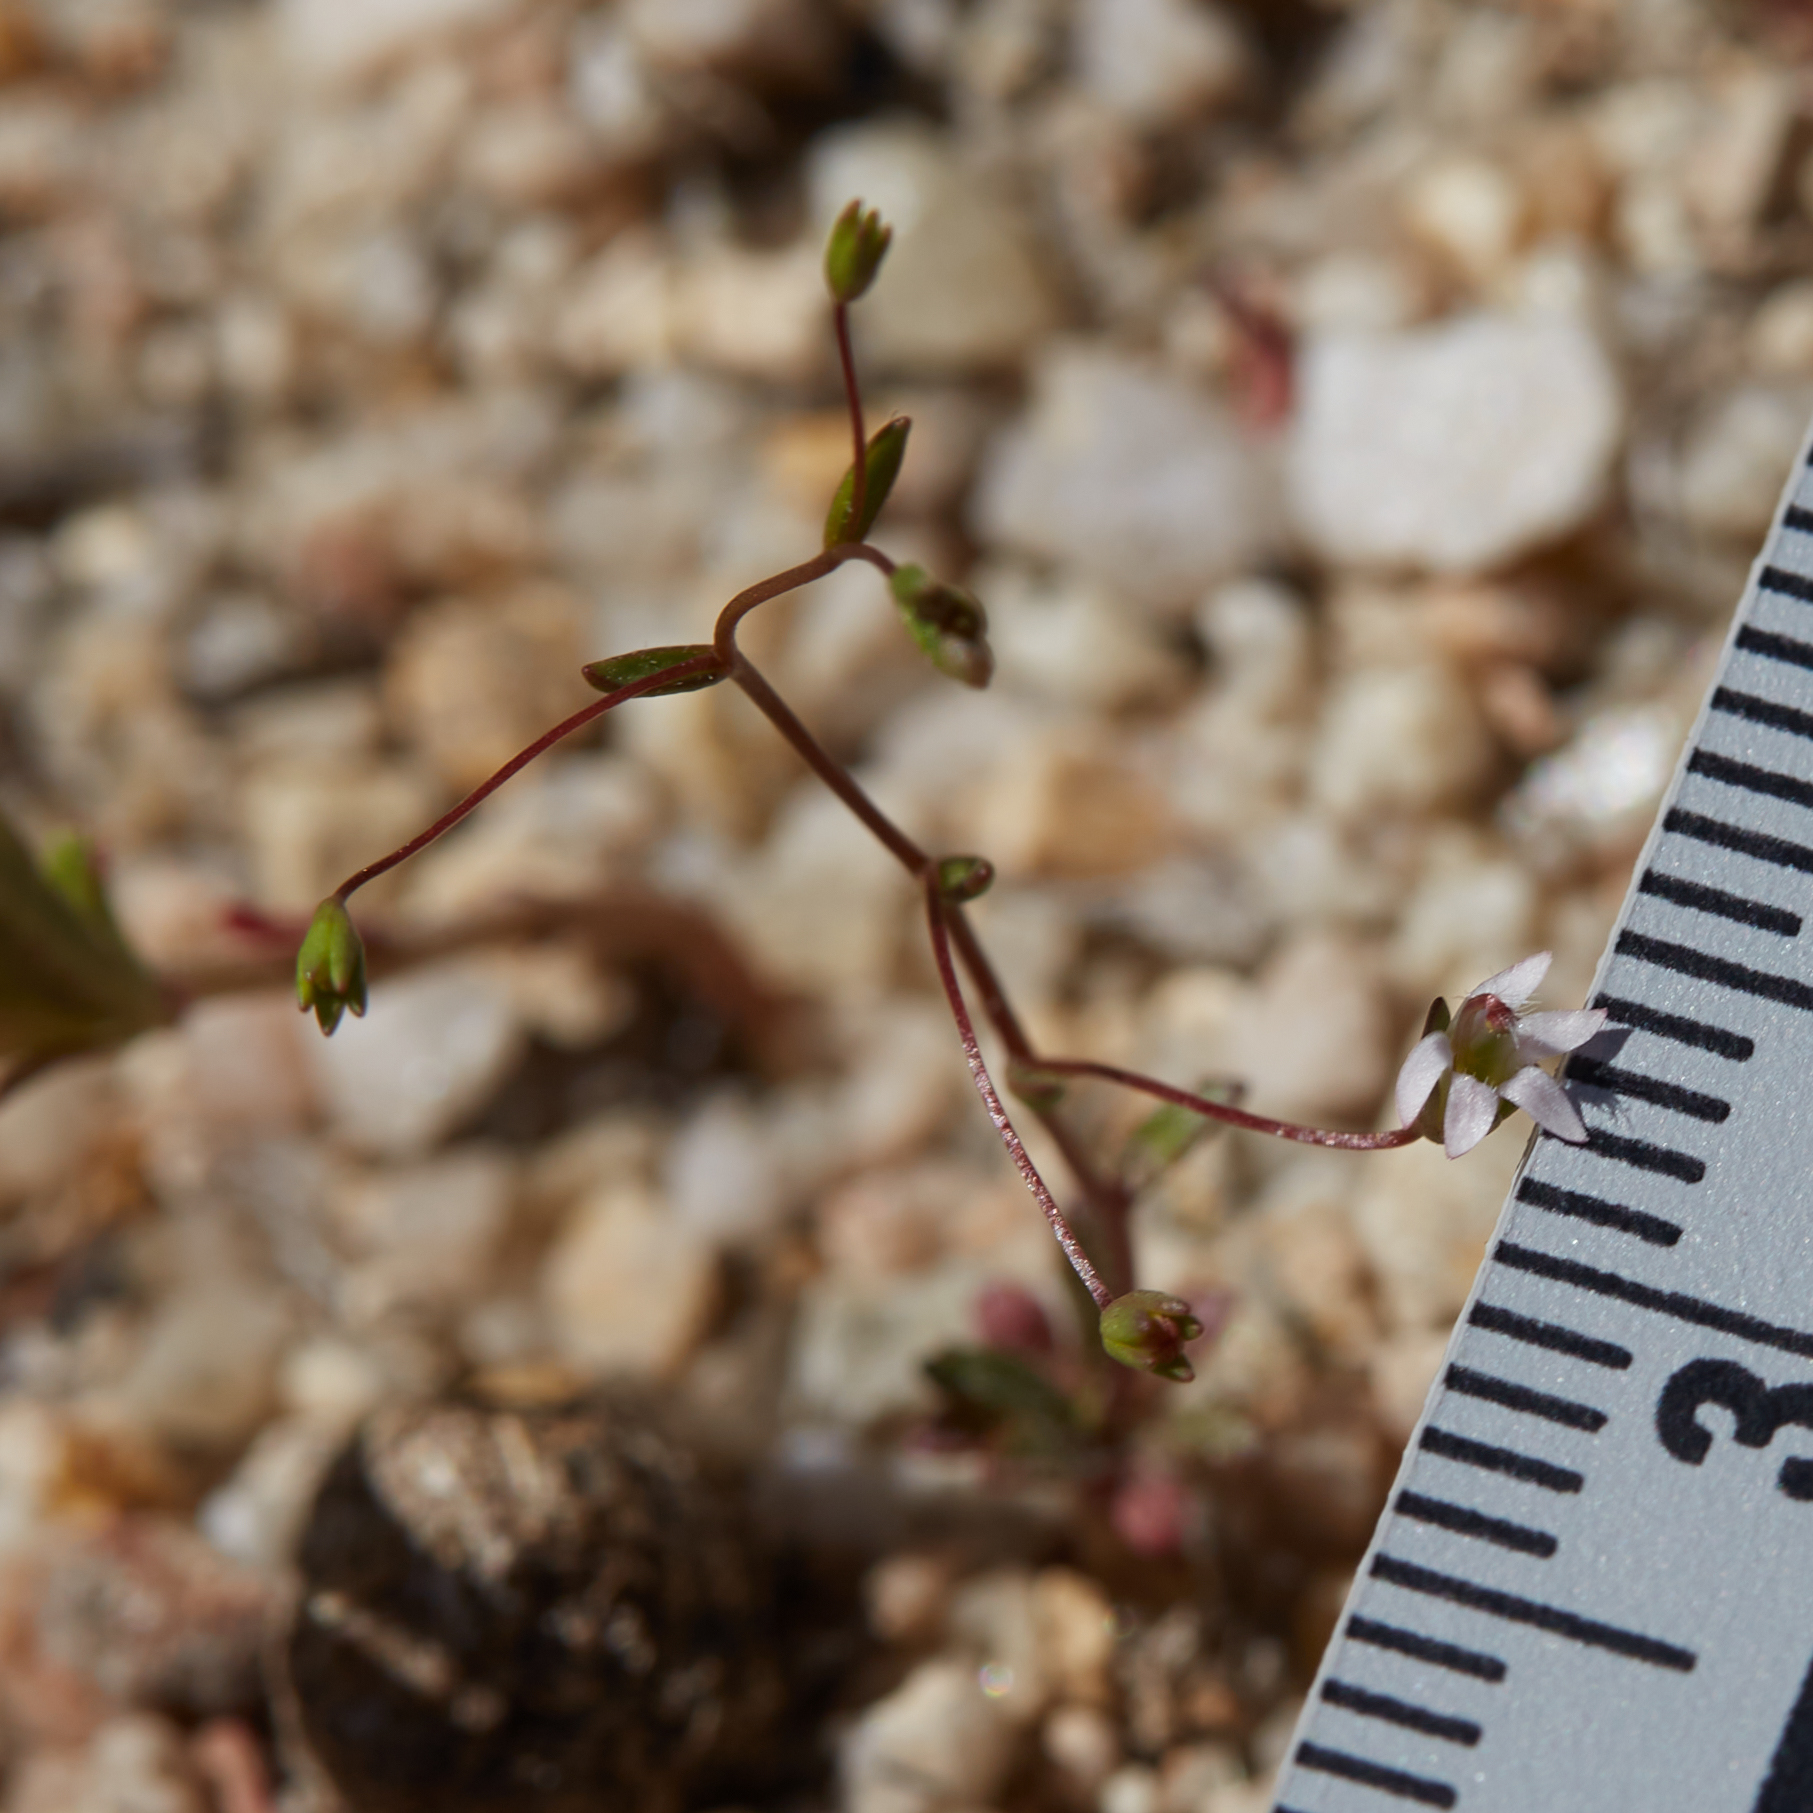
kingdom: Plantae
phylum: Tracheophyta
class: Magnoliopsida
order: Asterales
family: Campanulaceae
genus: Nemacladus
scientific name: Nemacladus secundiflorus
